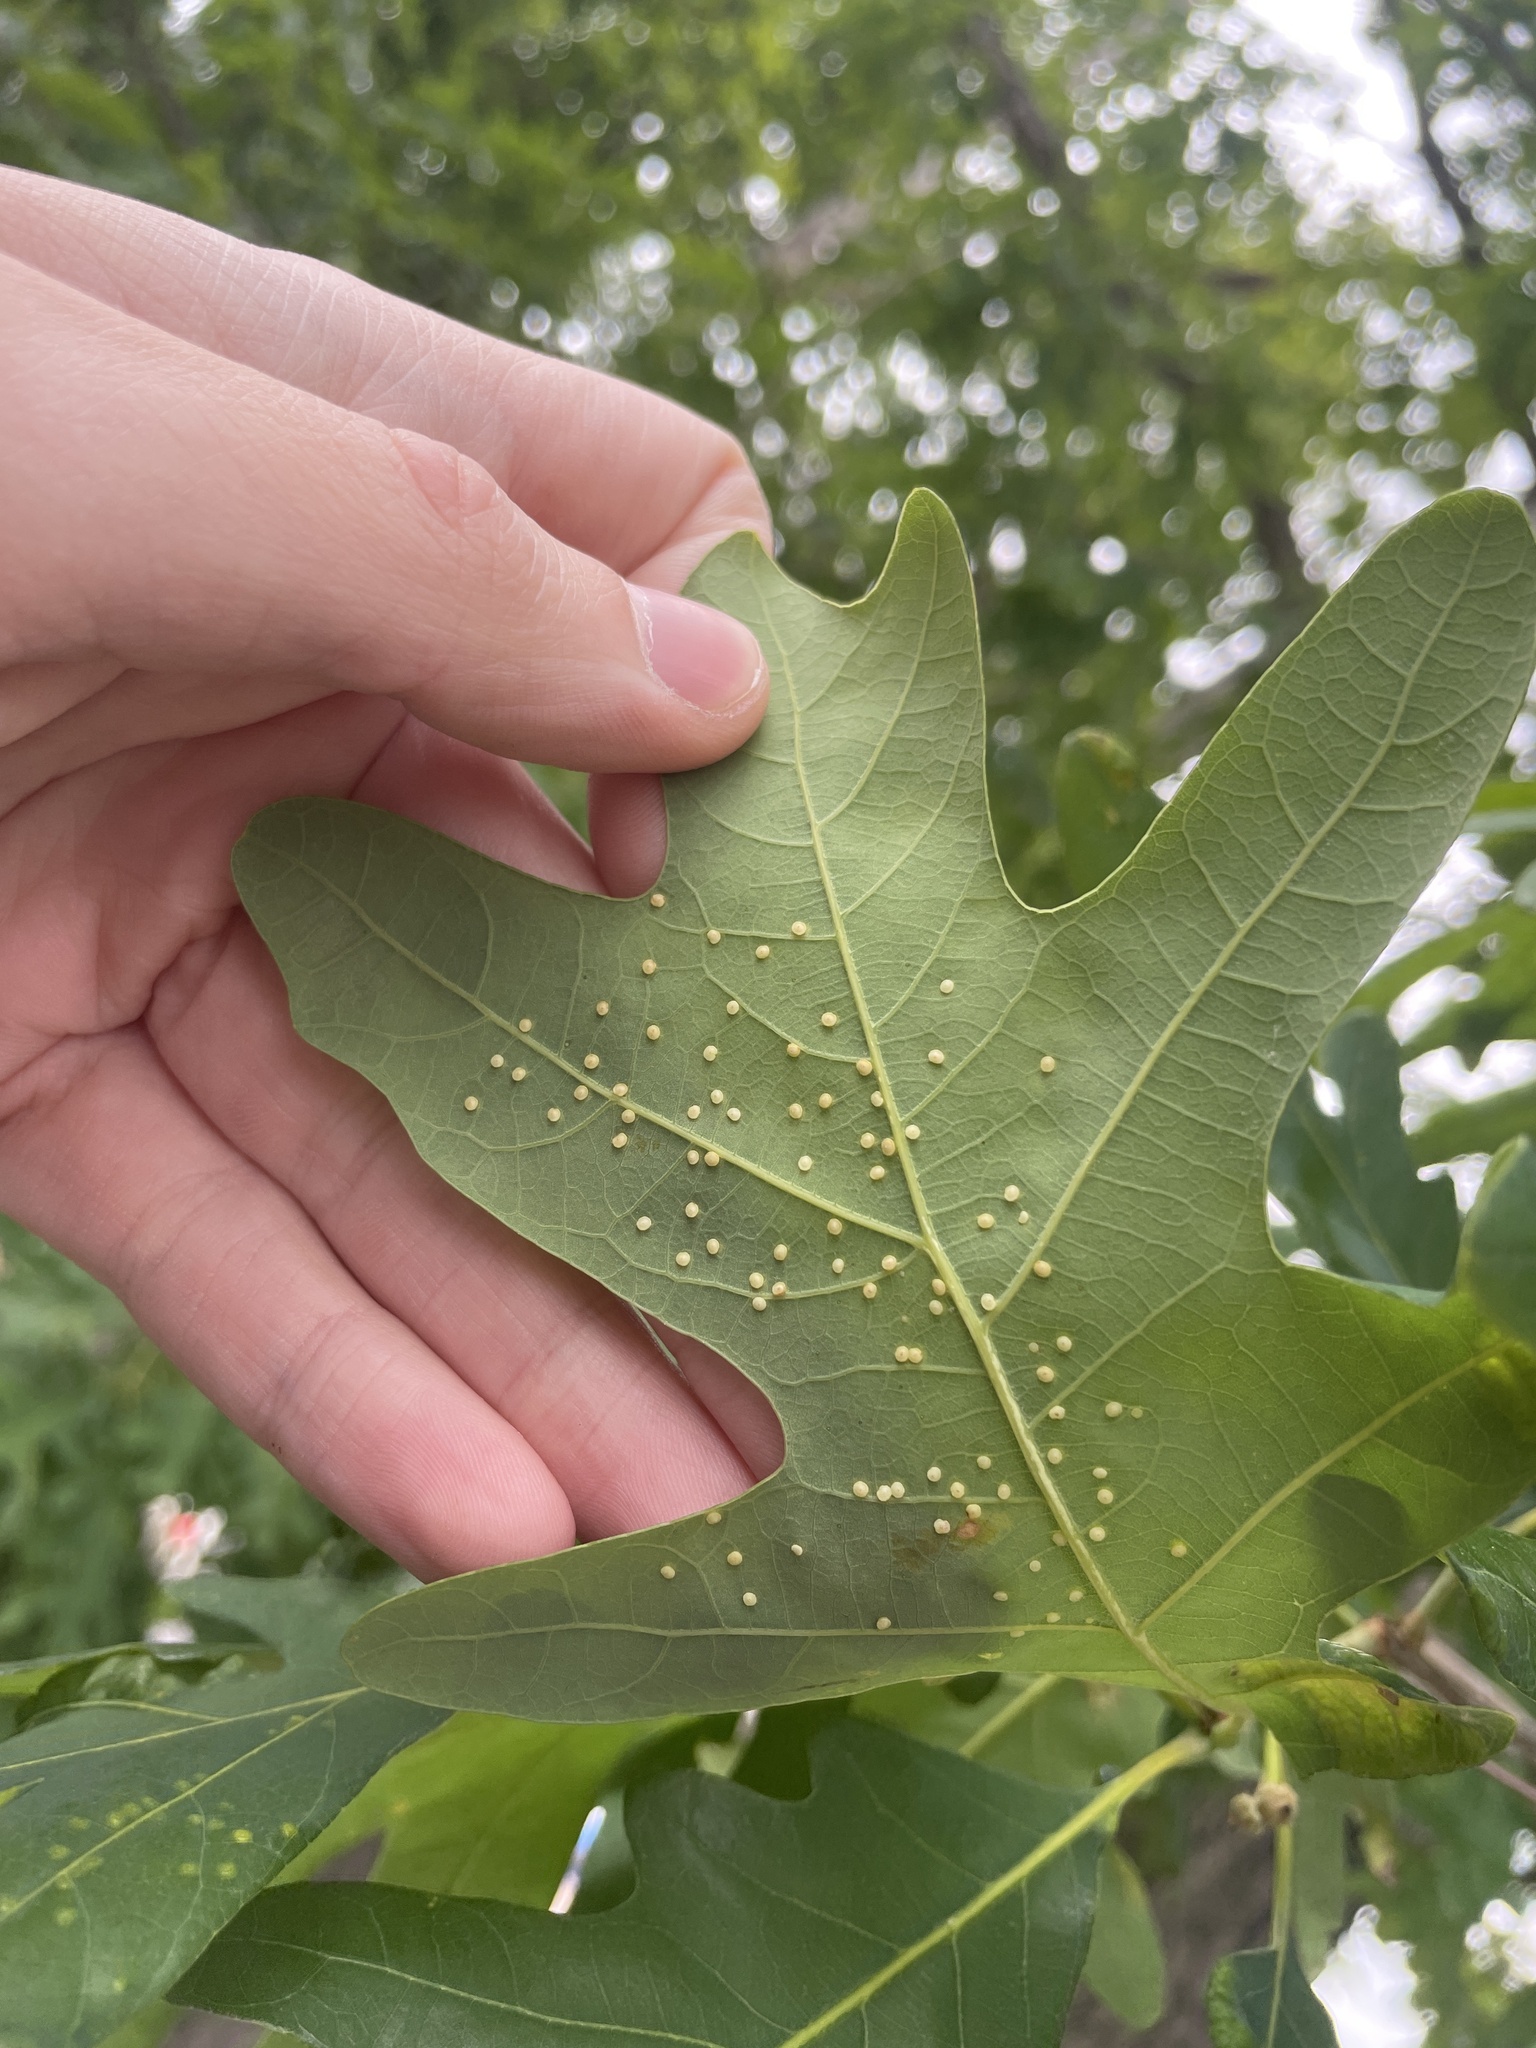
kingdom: Animalia
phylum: Arthropoda
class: Insecta
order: Hymenoptera
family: Cynipidae
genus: Neuroterus
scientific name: Neuroterus
